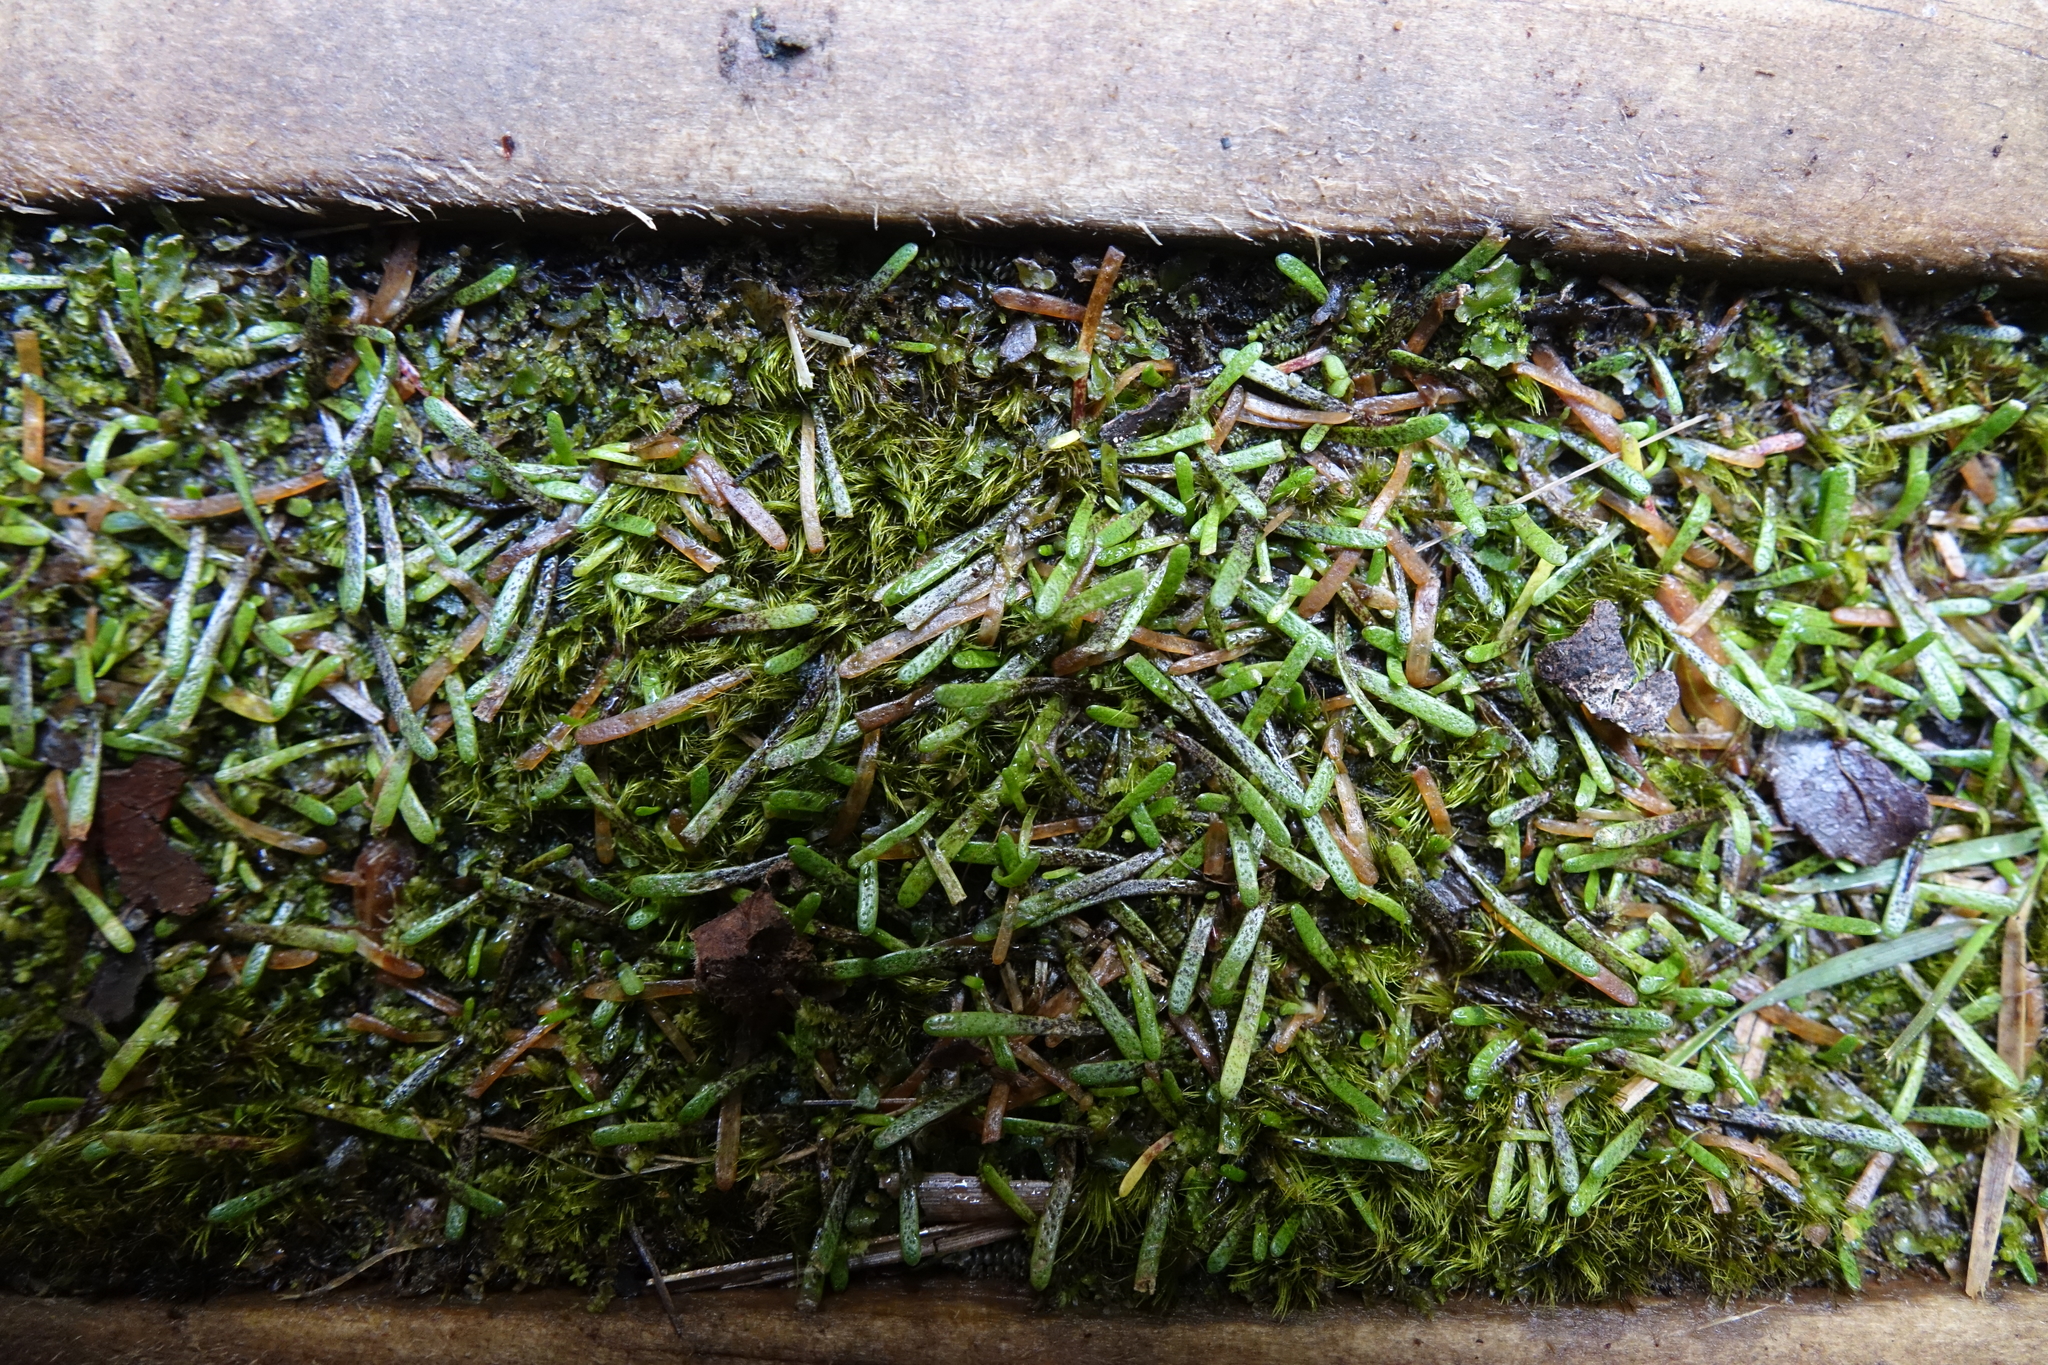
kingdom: Plantae
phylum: Tracheophyta
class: Magnoliopsida
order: Asterales
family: Asteraceae
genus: Abrotanella
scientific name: Abrotanella caespitosa
